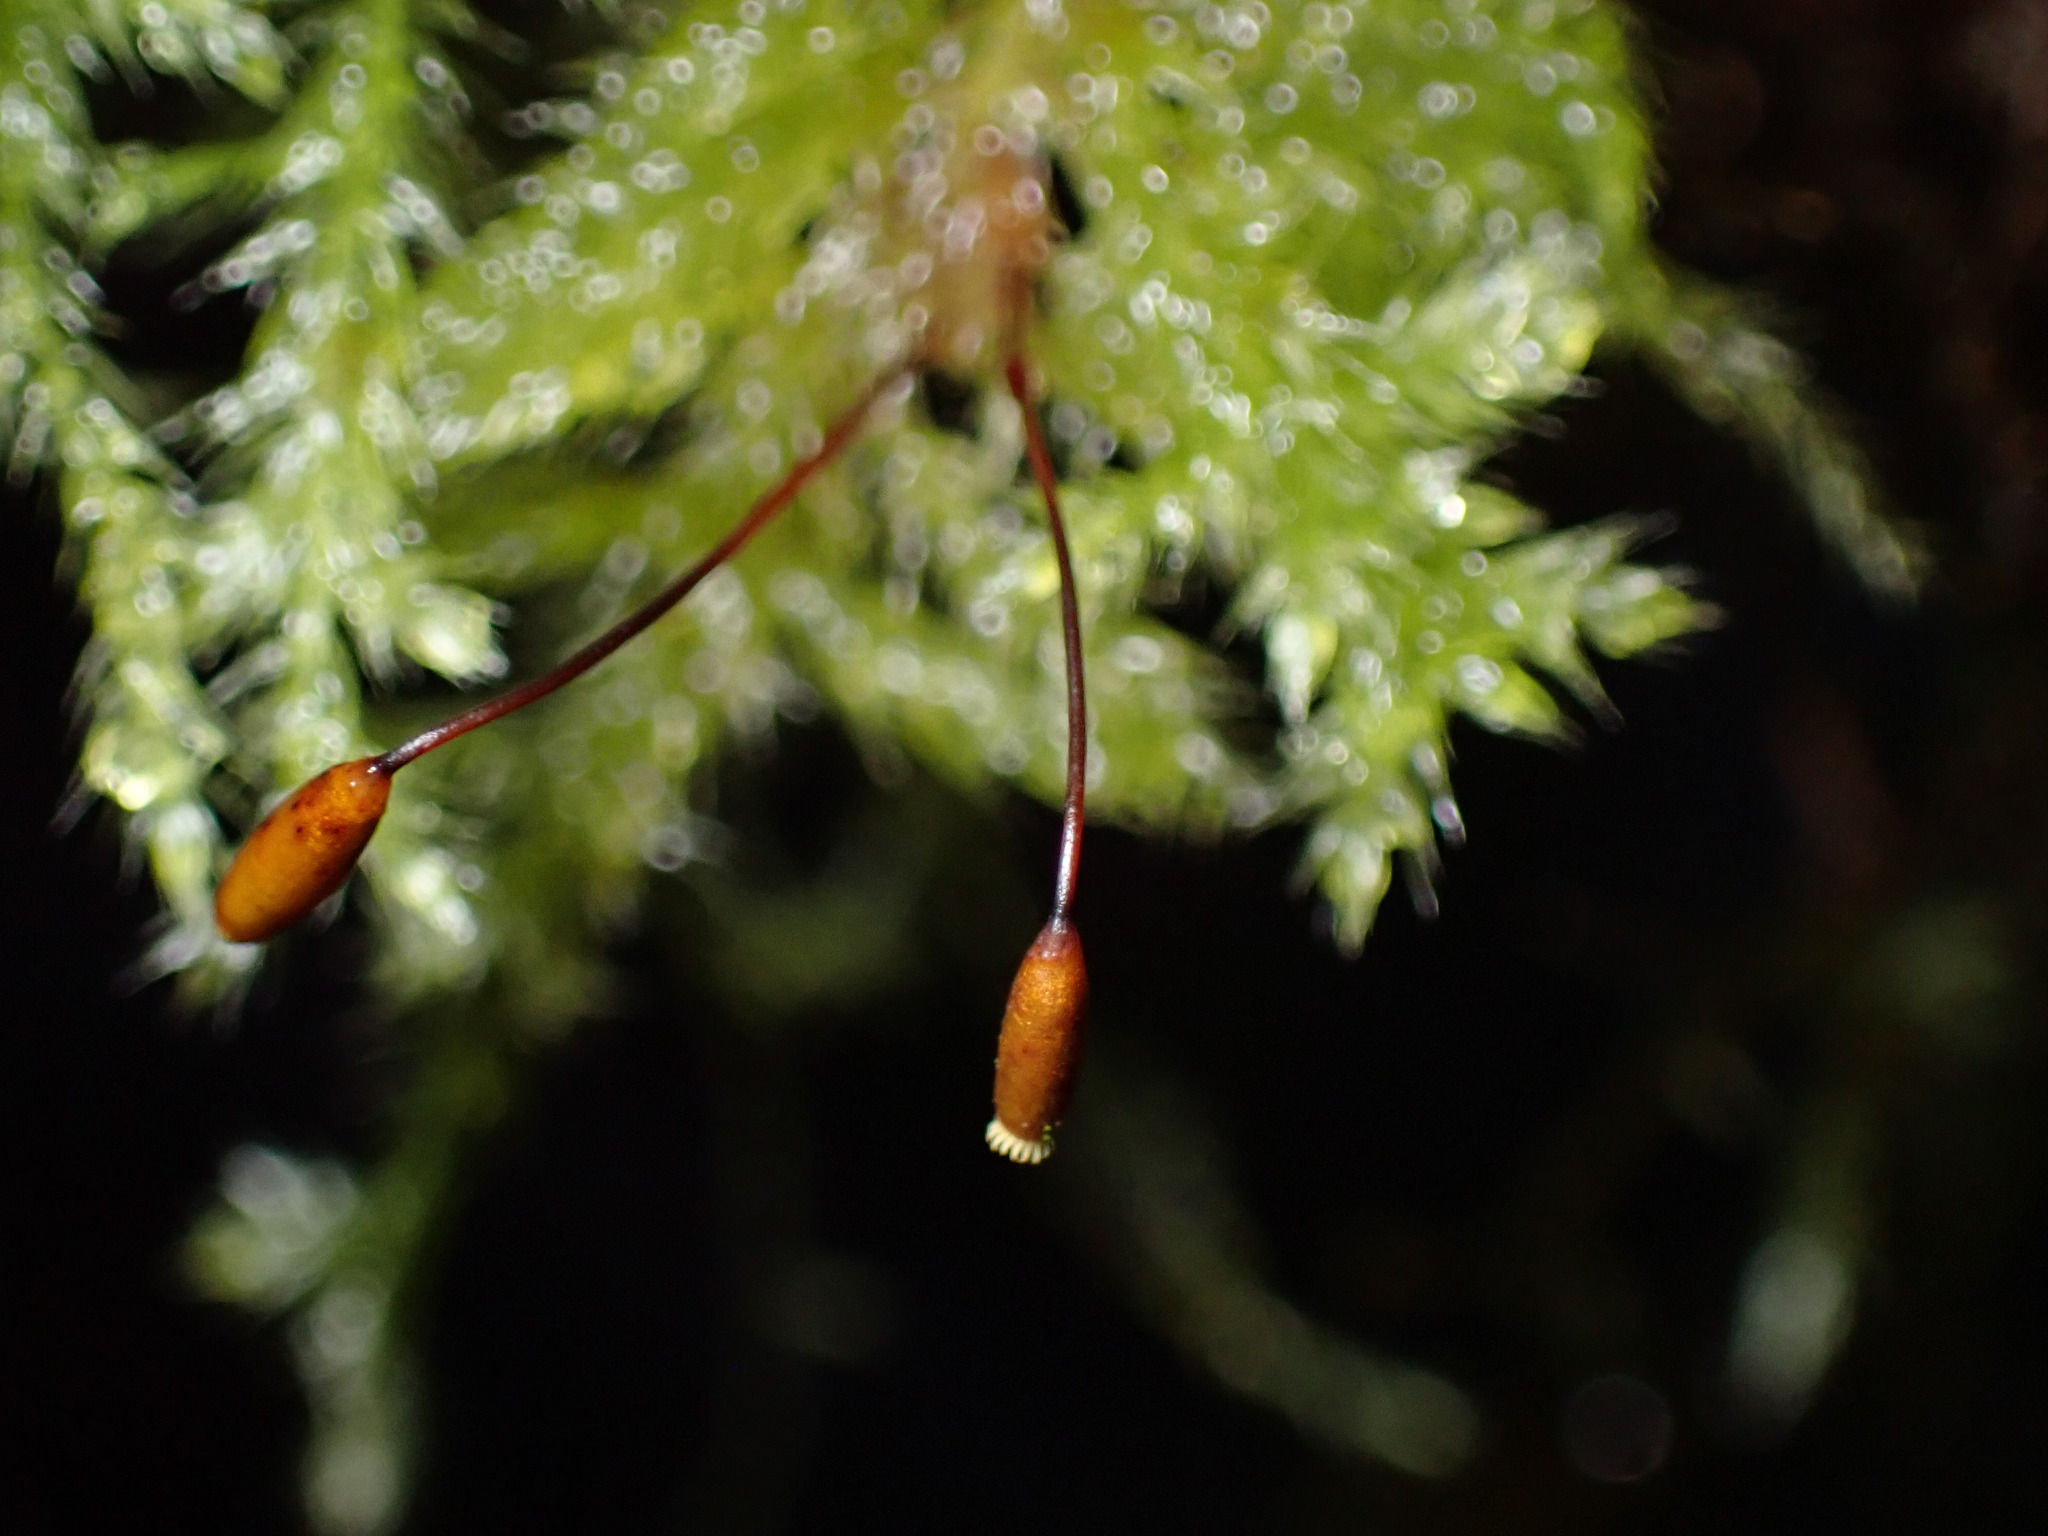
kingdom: Plantae
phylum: Bryophyta
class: Bryopsida
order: Hypnales
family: Lembophyllaceae
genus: Pseudisothecium
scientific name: Pseudisothecium stoloniferum
